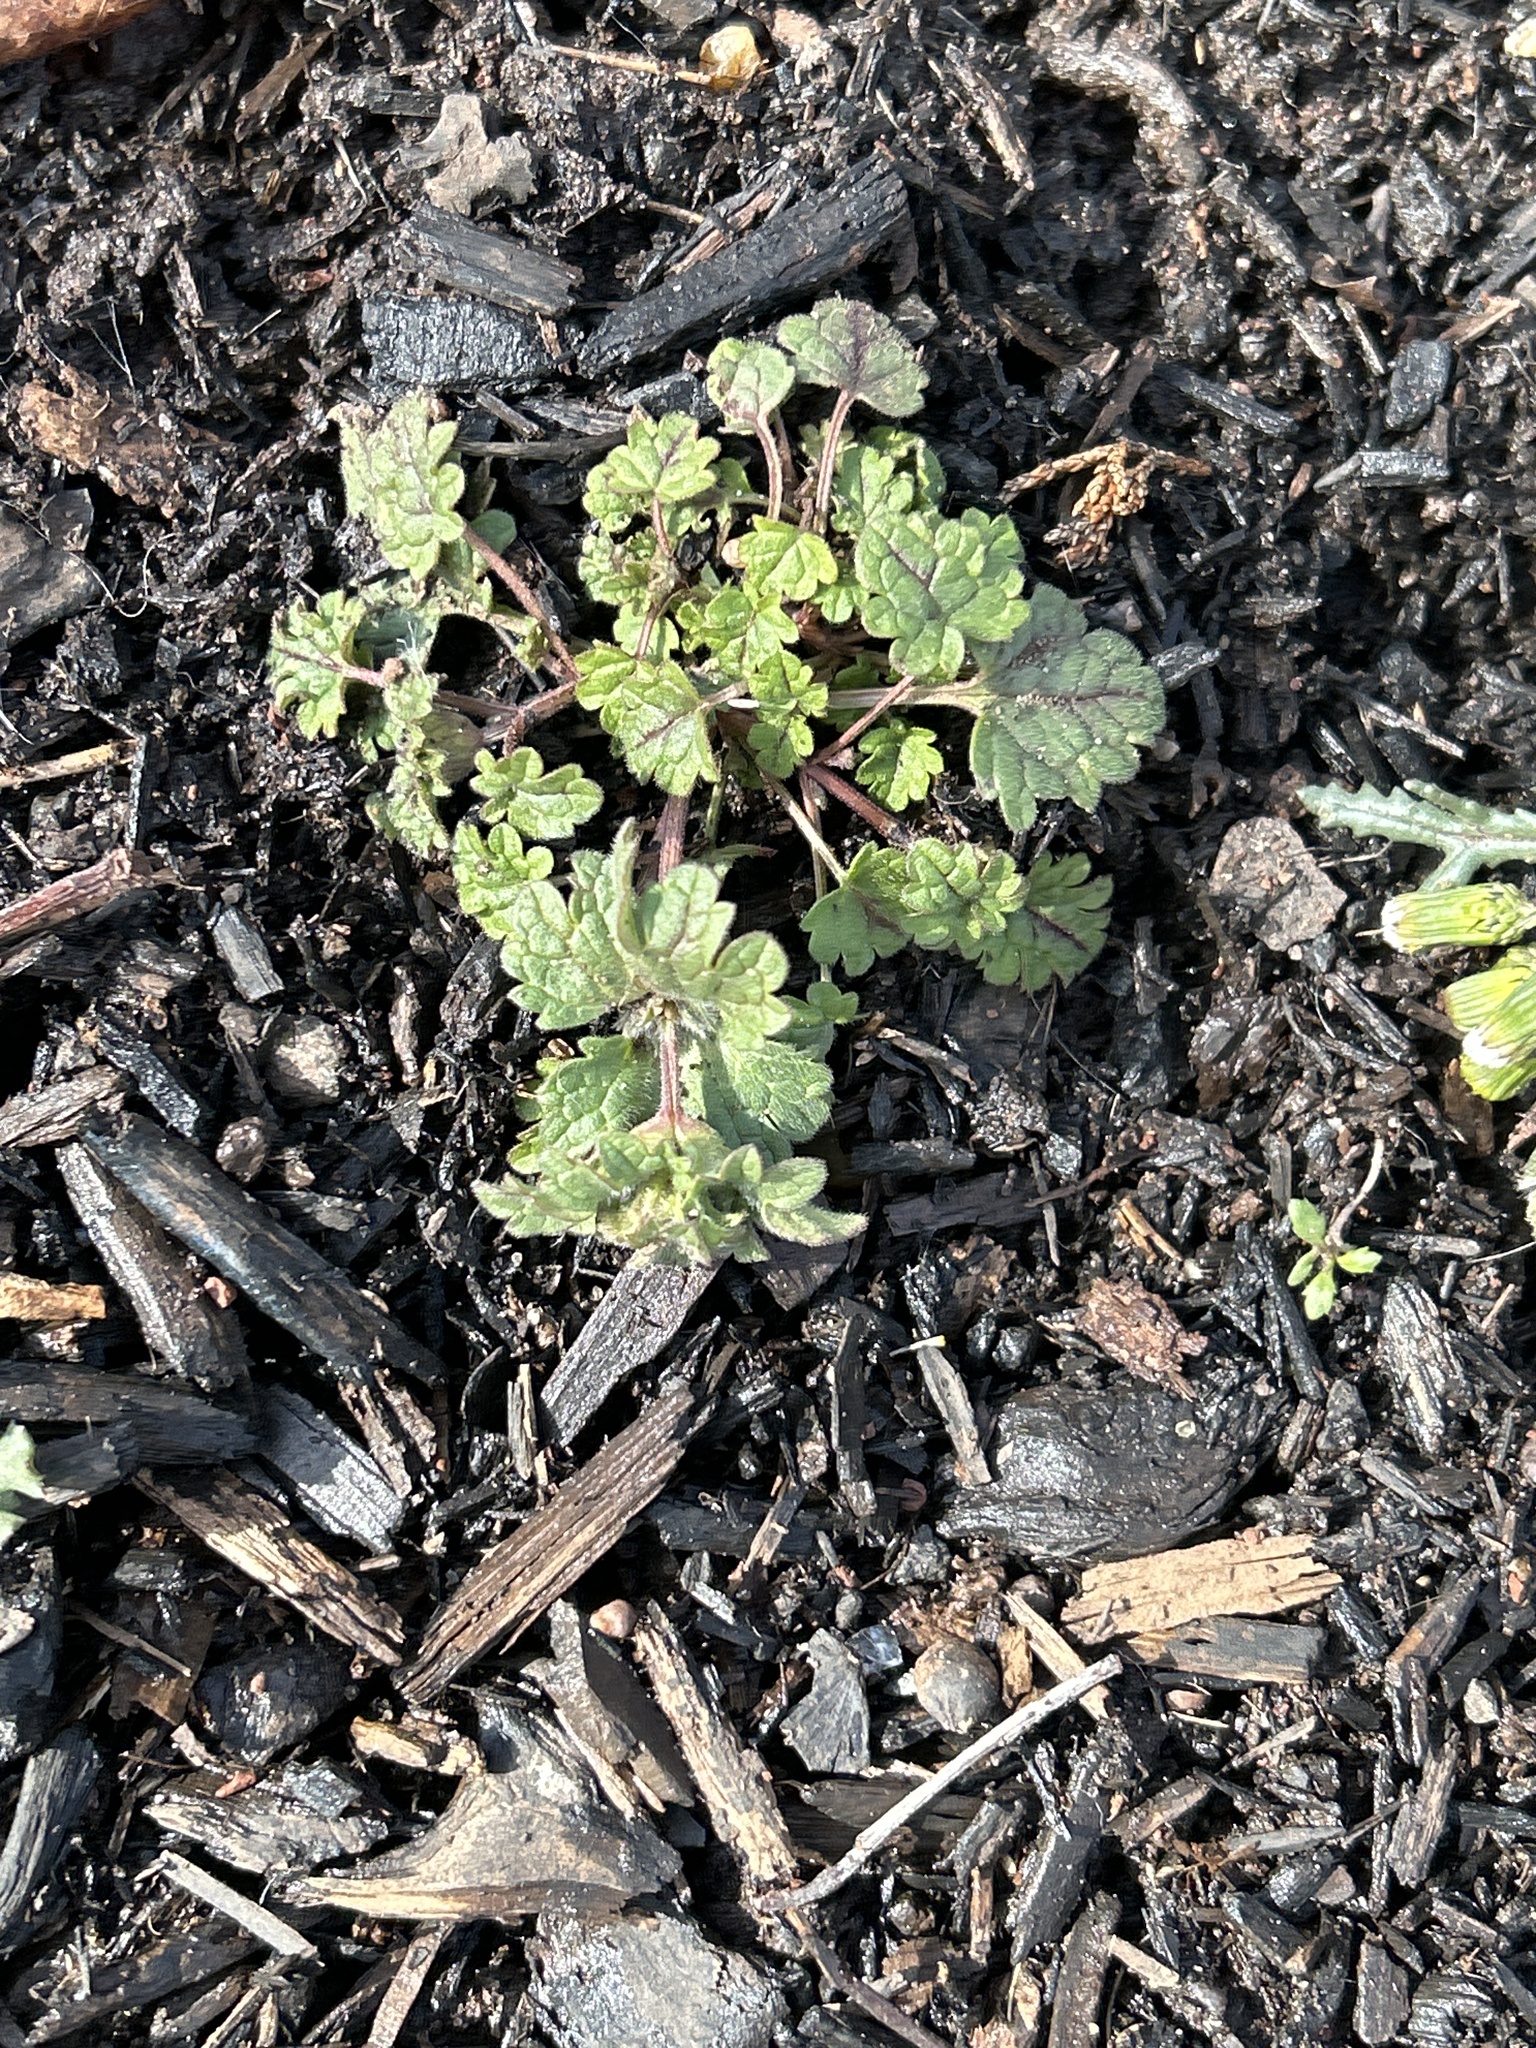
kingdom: Plantae
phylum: Tracheophyta
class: Magnoliopsida
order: Lamiales
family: Lamiaceae
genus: Lamium
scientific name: Lamium amplexicaule
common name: Henbit dead-nettle
